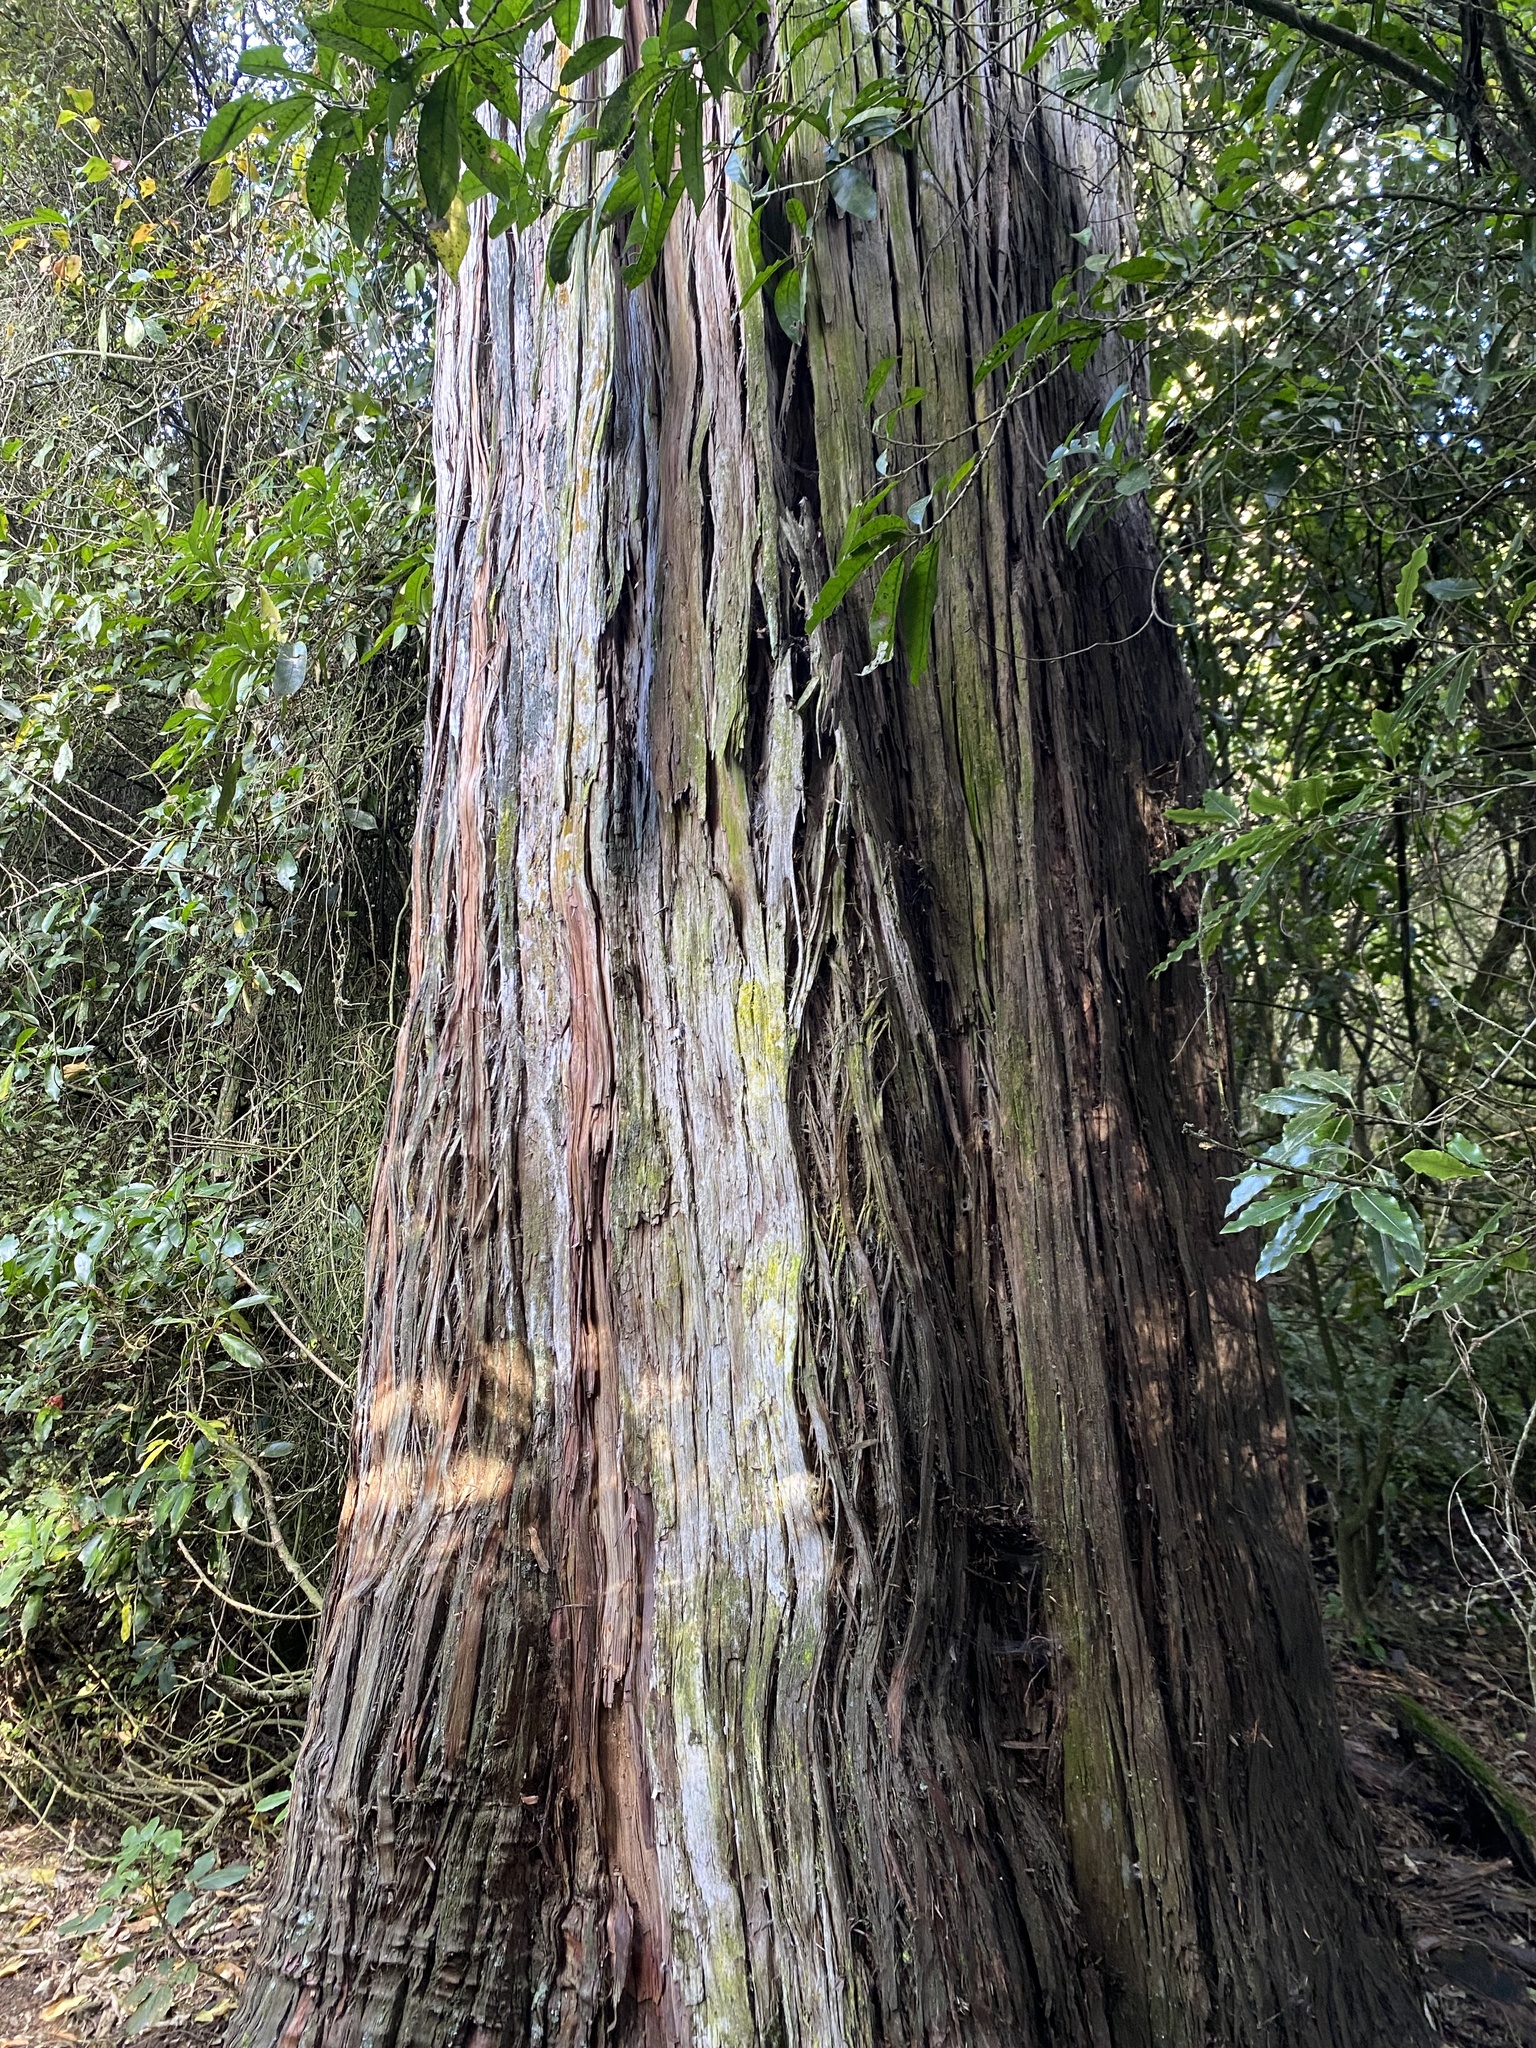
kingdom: Plantae
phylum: Tracheophyta
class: Pinopsida
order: Pinales
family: Podocarpaceae
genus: Podocarpus
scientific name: Podocarpus totara
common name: Totara
